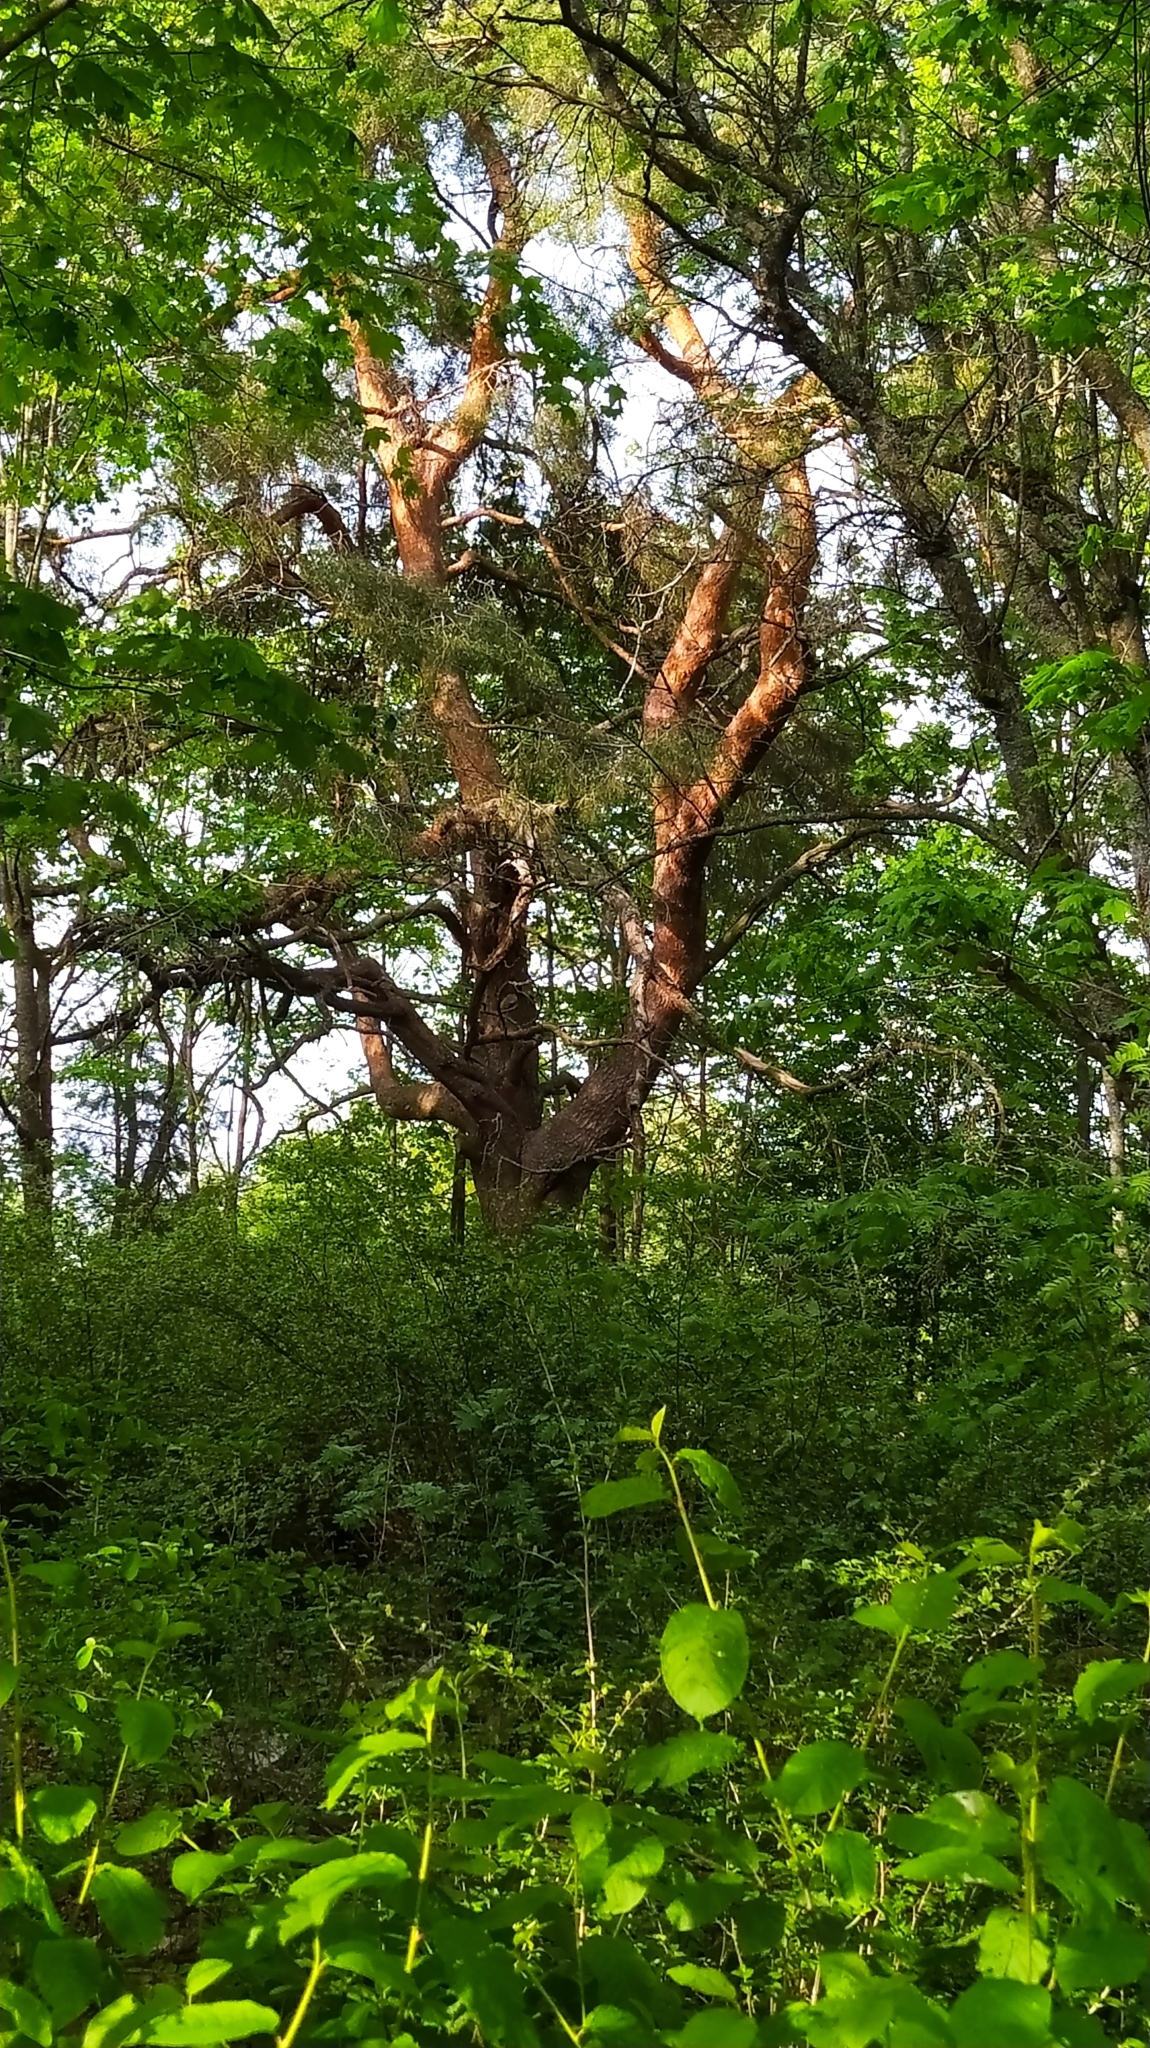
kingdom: Plantae
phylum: Tracheophyta
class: Pinopsida
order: Pinales
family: Pinaceae
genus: Pinus
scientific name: Pinus sylvestris
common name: Scots pine
